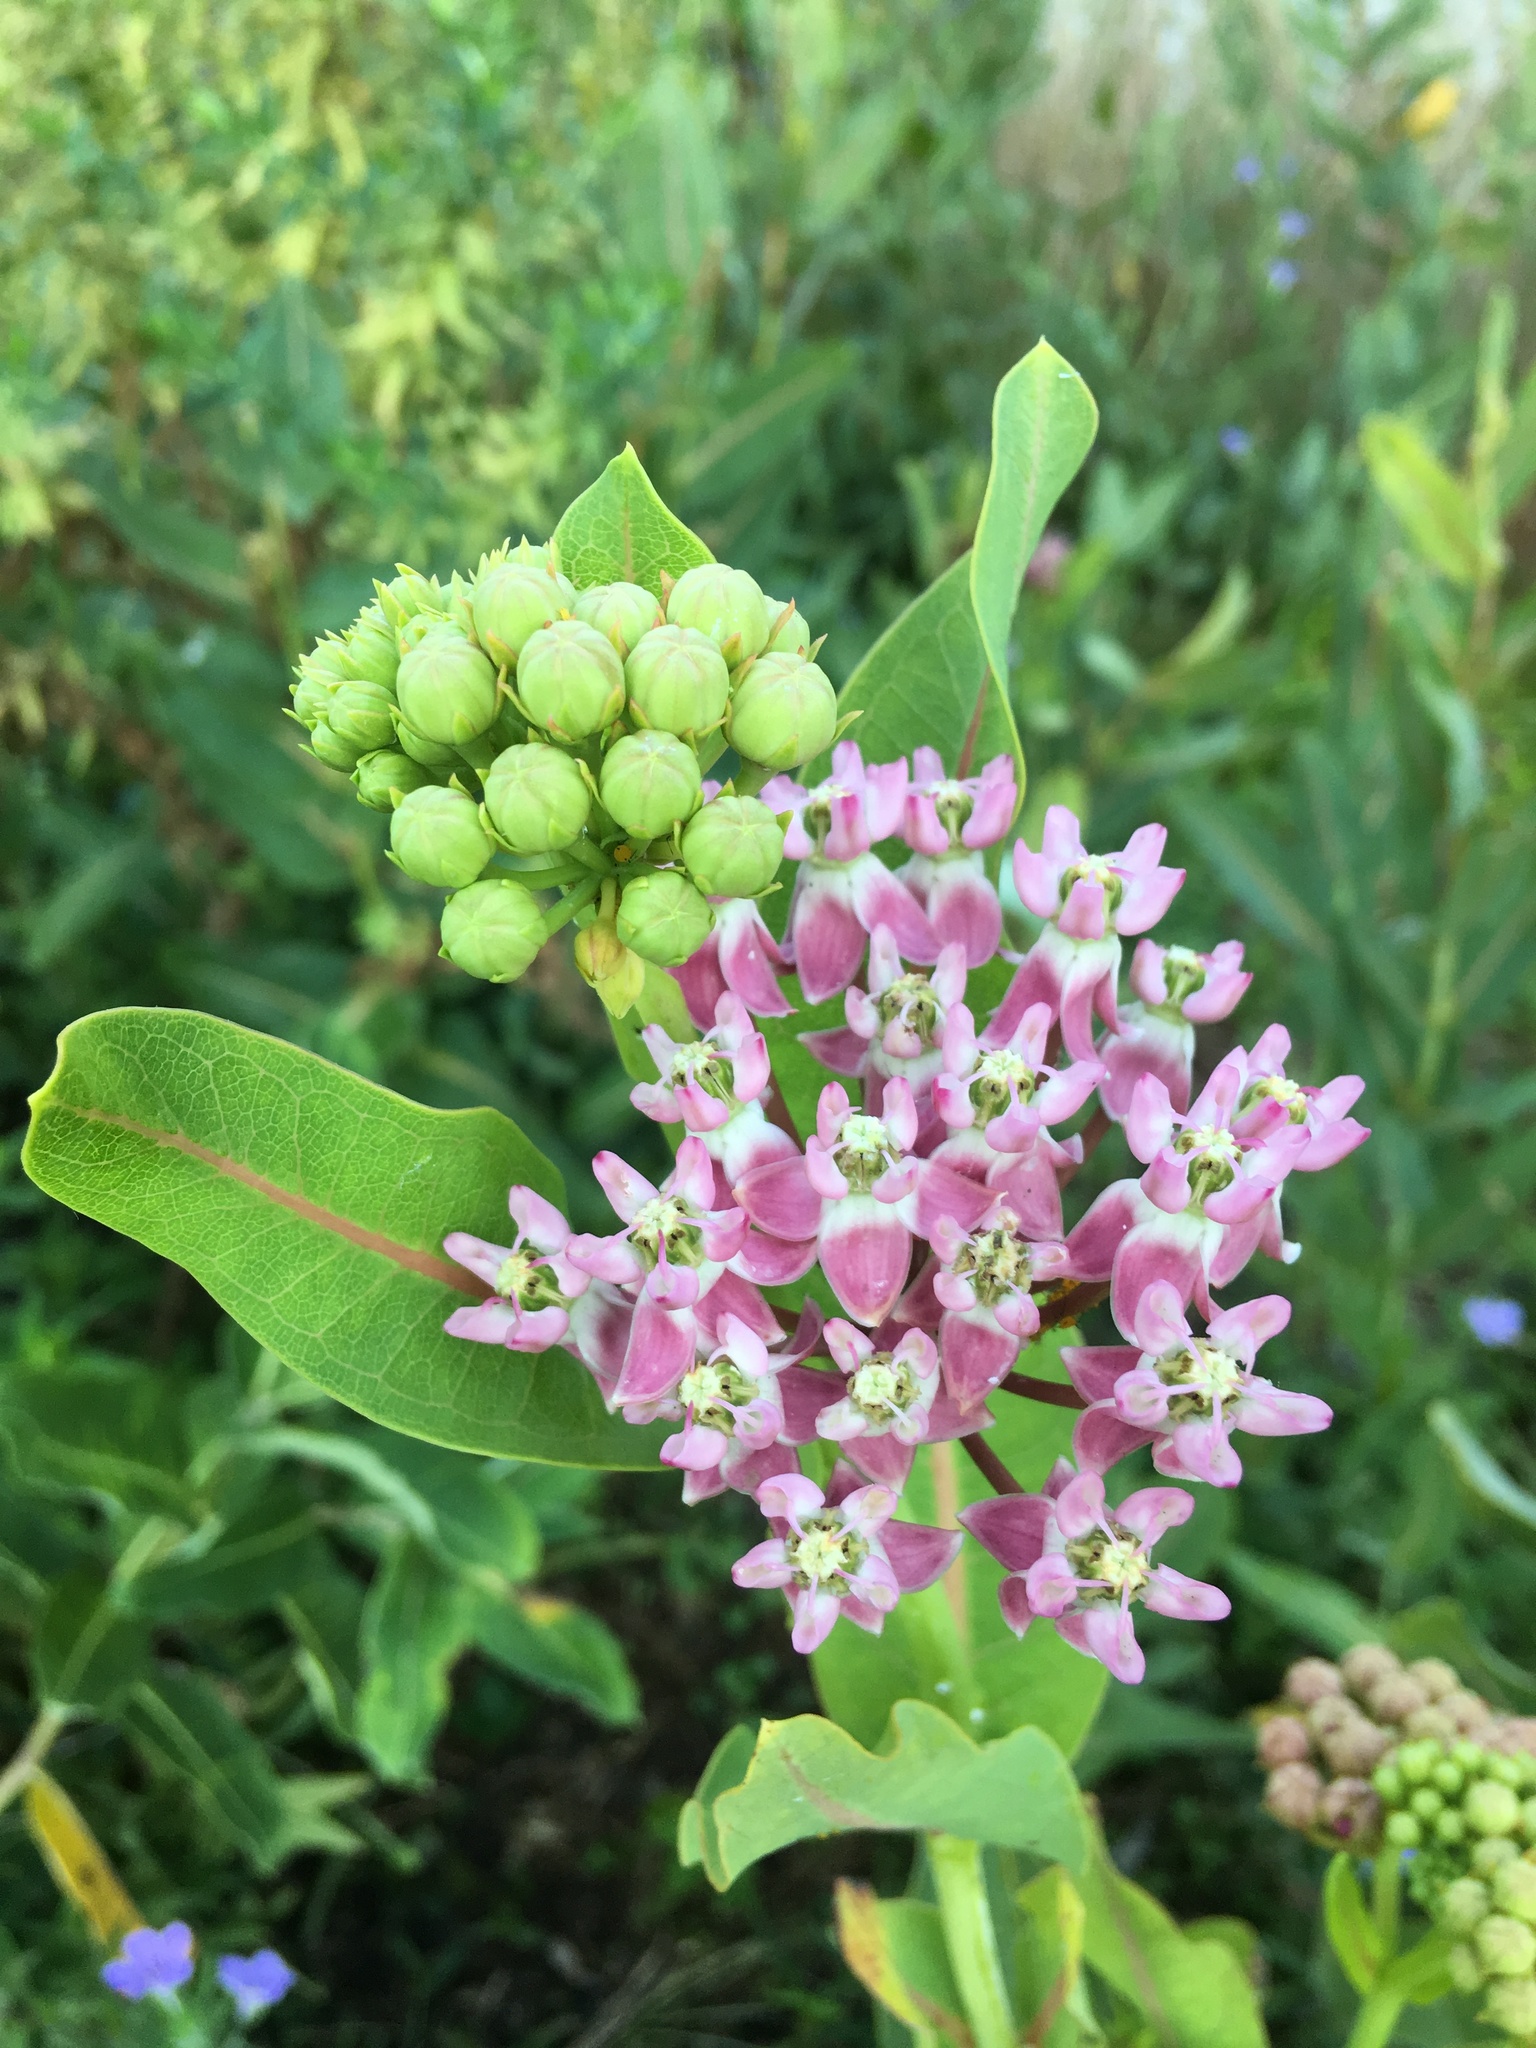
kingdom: Plantae
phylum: Tracheophyta
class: Magnoliopsida
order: Gentianales
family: Apocynaceae
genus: Asclepias
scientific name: Asclepias sullivantii
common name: Prairie milkweed
